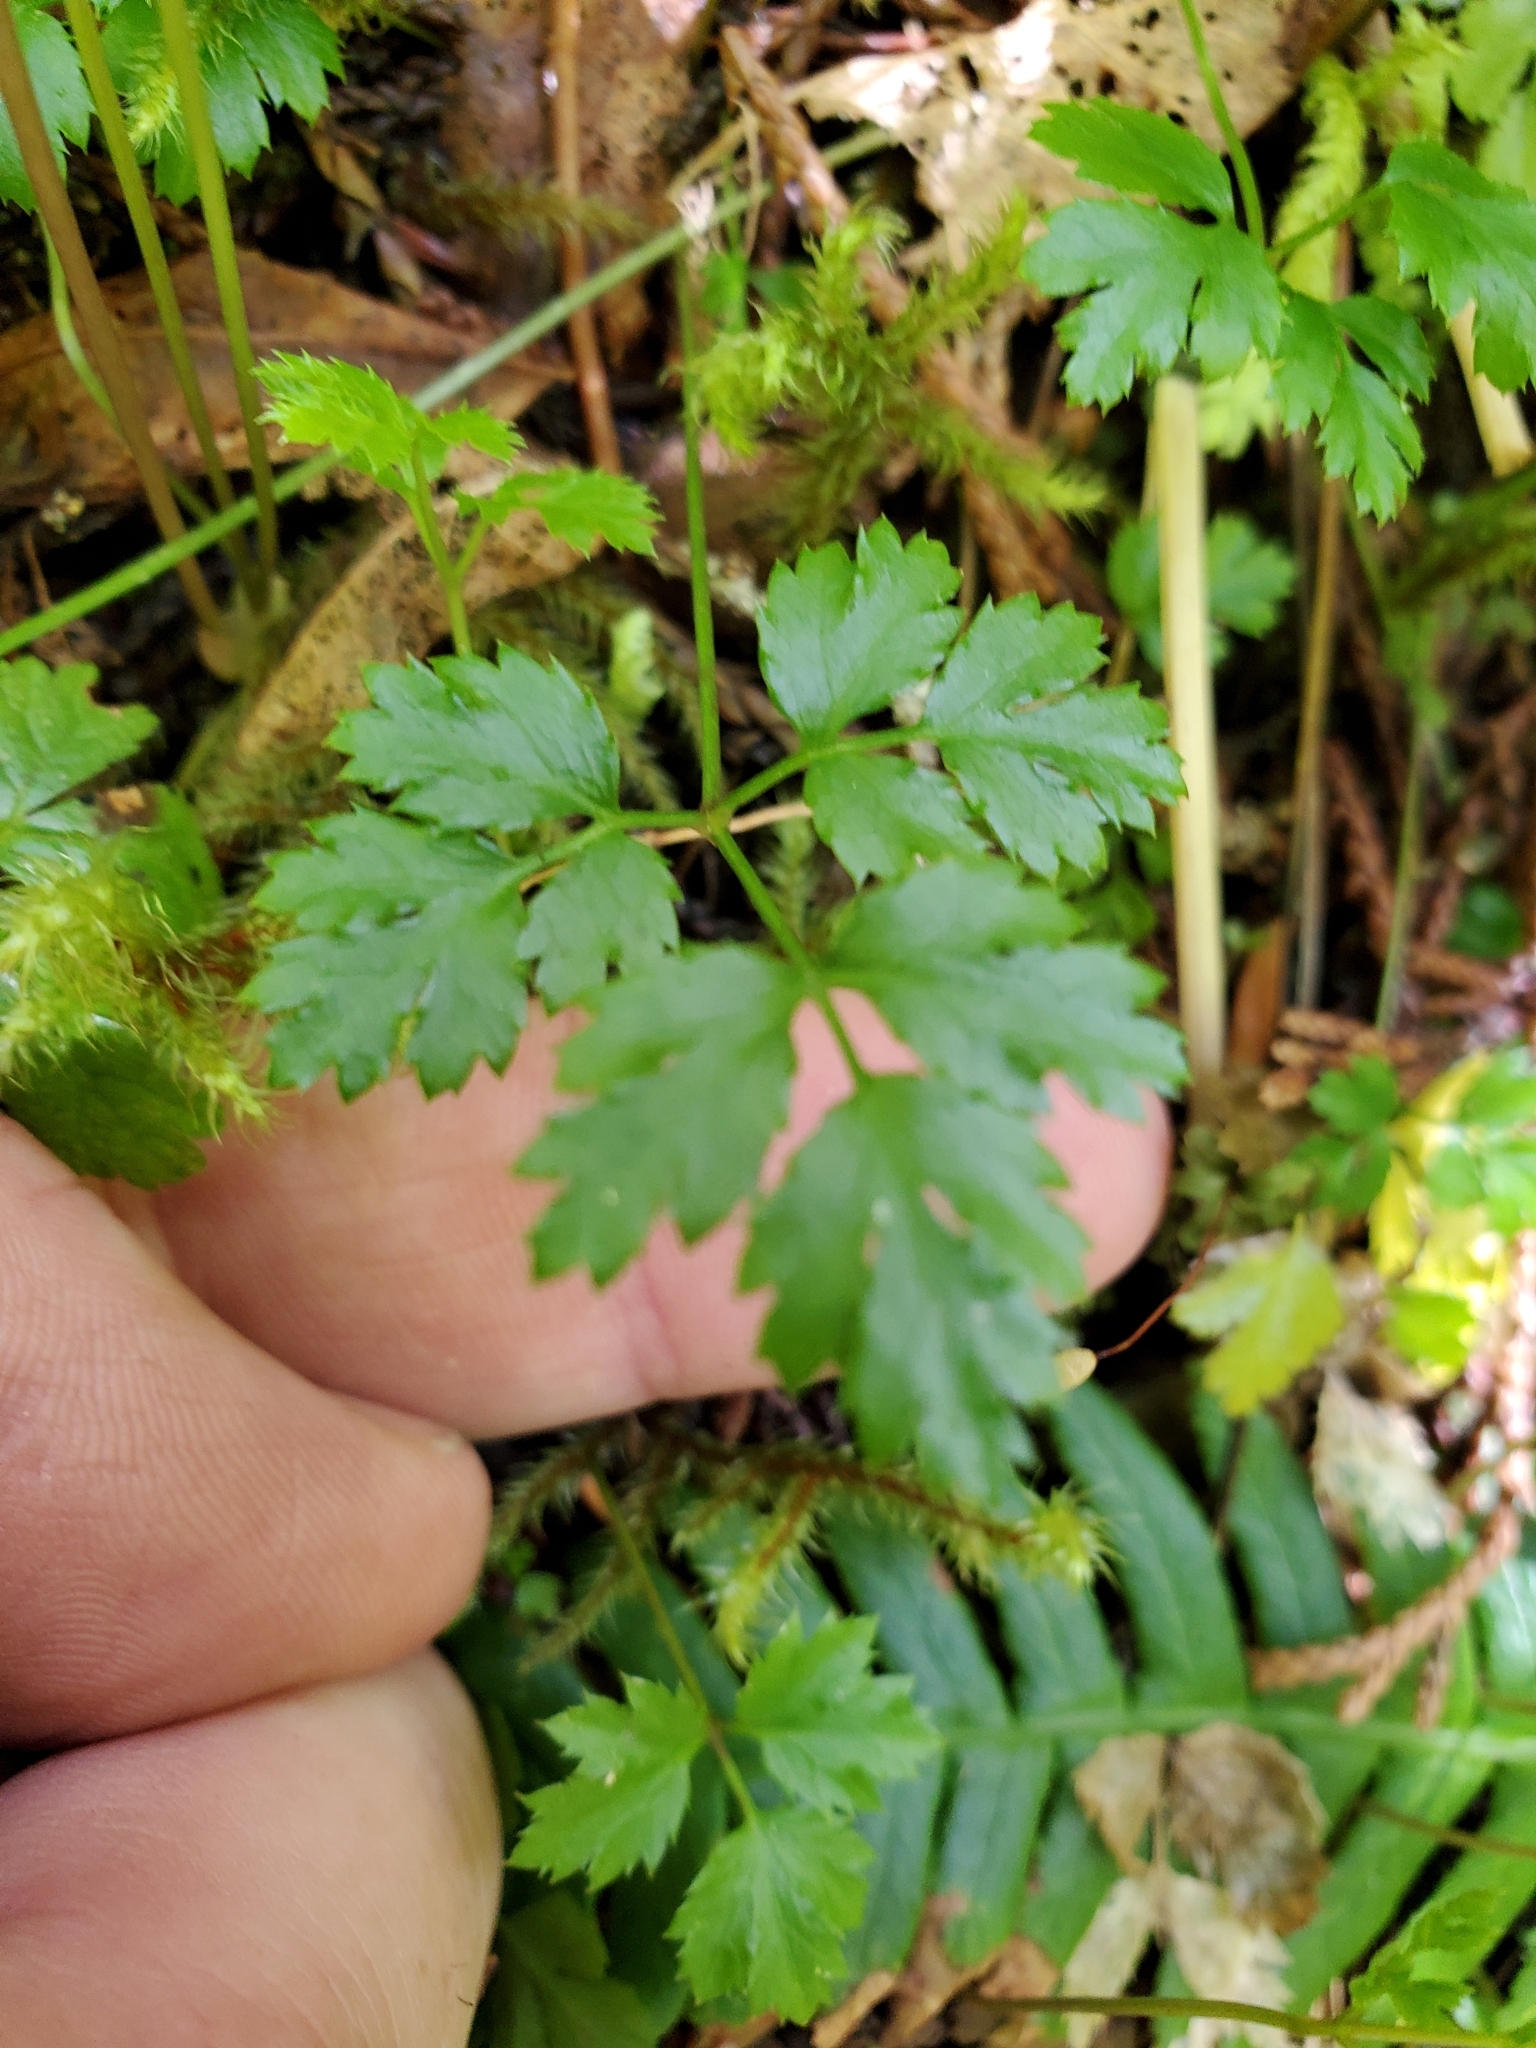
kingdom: Plantae
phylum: Tracheophyta
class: Magnoliopsida
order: Ranunculales
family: Ranunculaceae
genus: Coptis
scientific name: Coptis aspleniifolia
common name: Fern-leaved goldthread
